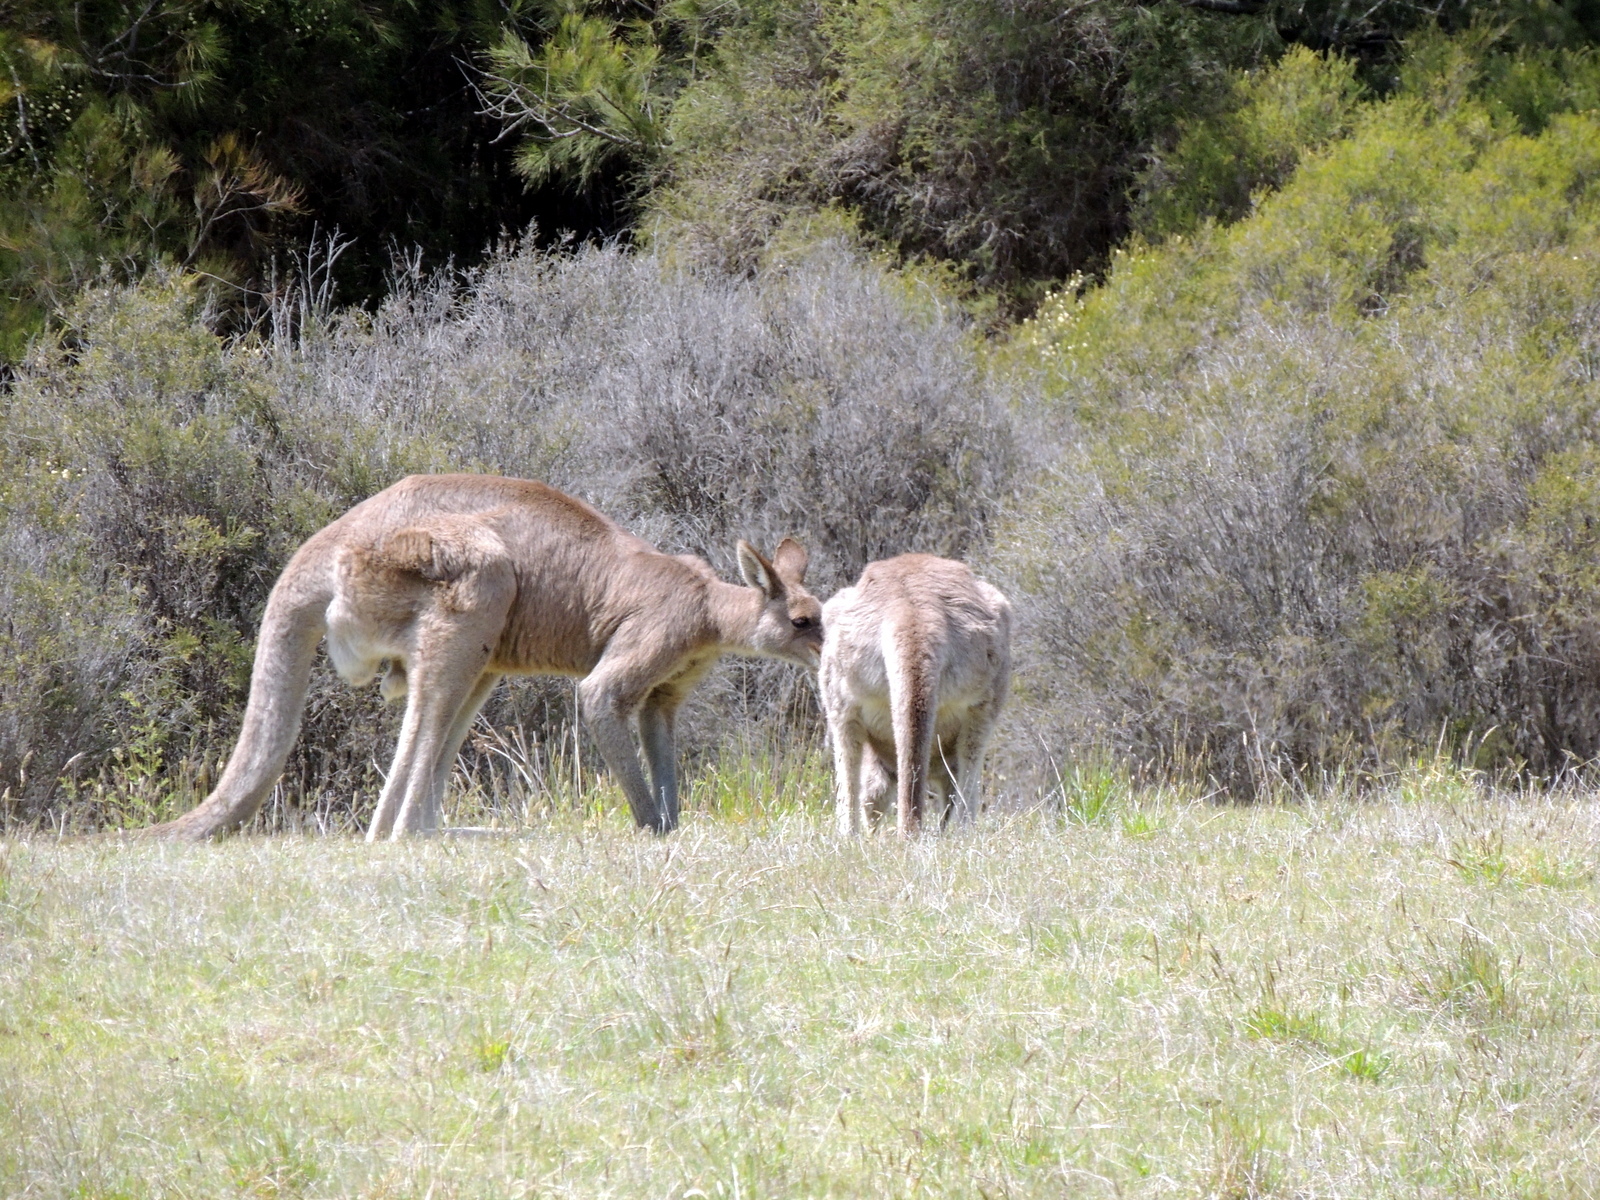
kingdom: Animalia
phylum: Chordata
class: Mammalia
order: Diprotodontia
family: Macropodidae
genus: Macropus
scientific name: Macropus giganteus
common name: Eastern grey kangaroo
